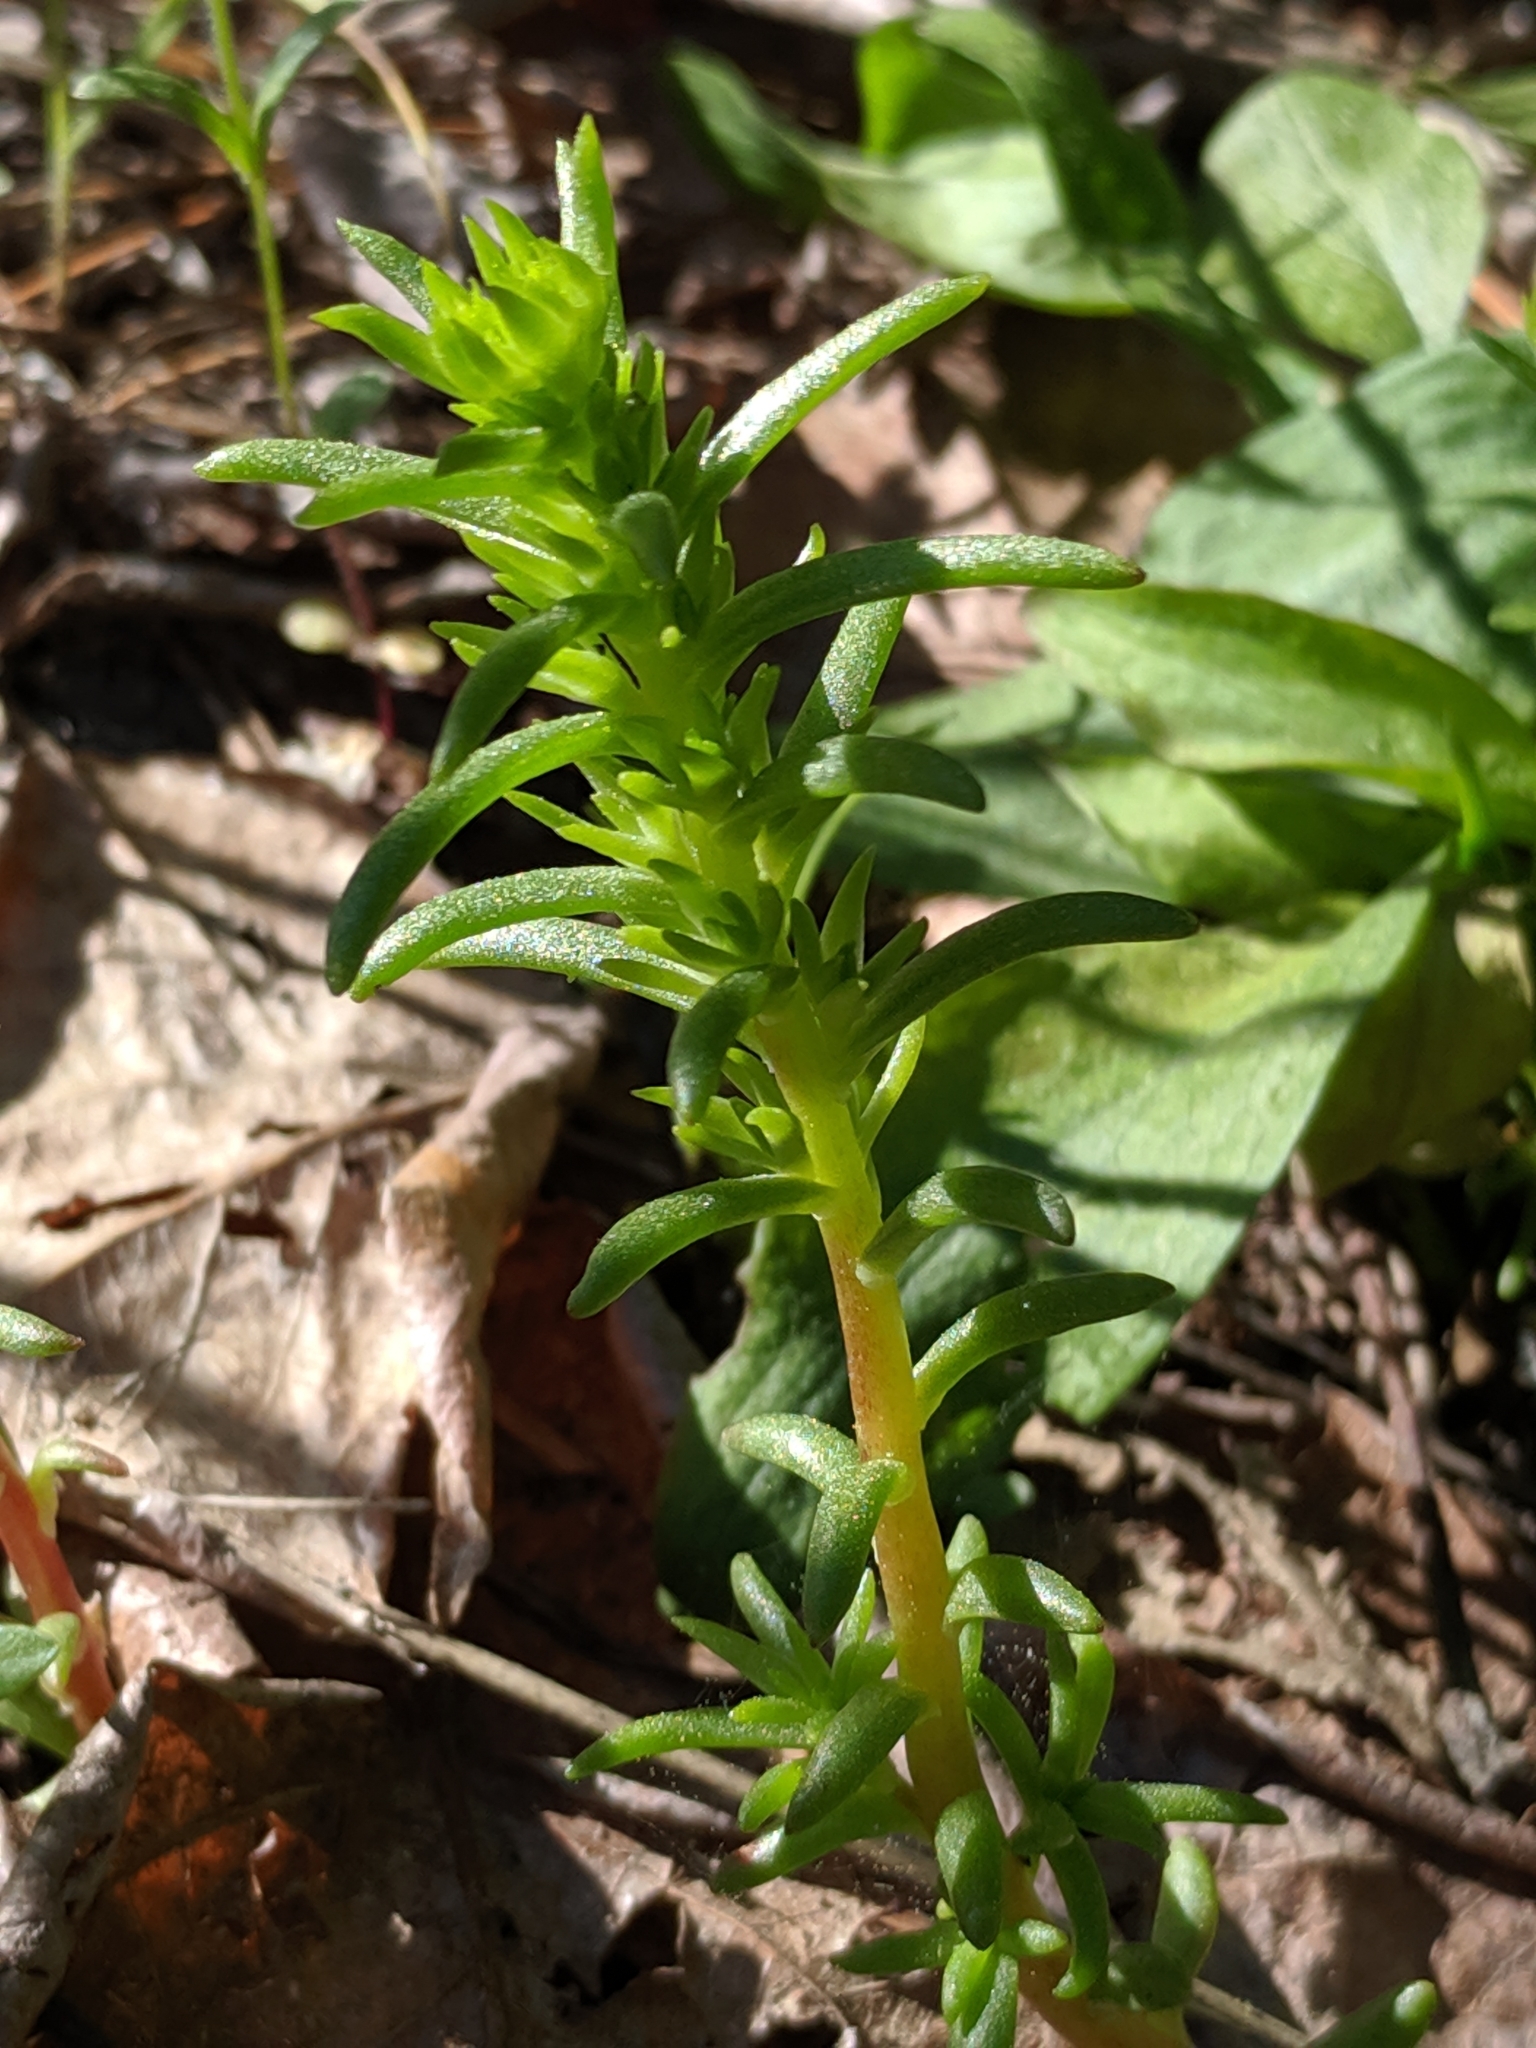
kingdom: Plantae
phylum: Tracheophyta
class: Magnoliopsida
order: Saxifragales
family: Crassulaceae
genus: Sedum
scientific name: Sedum stenopetalum
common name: Narrow-petaled stonecrop
